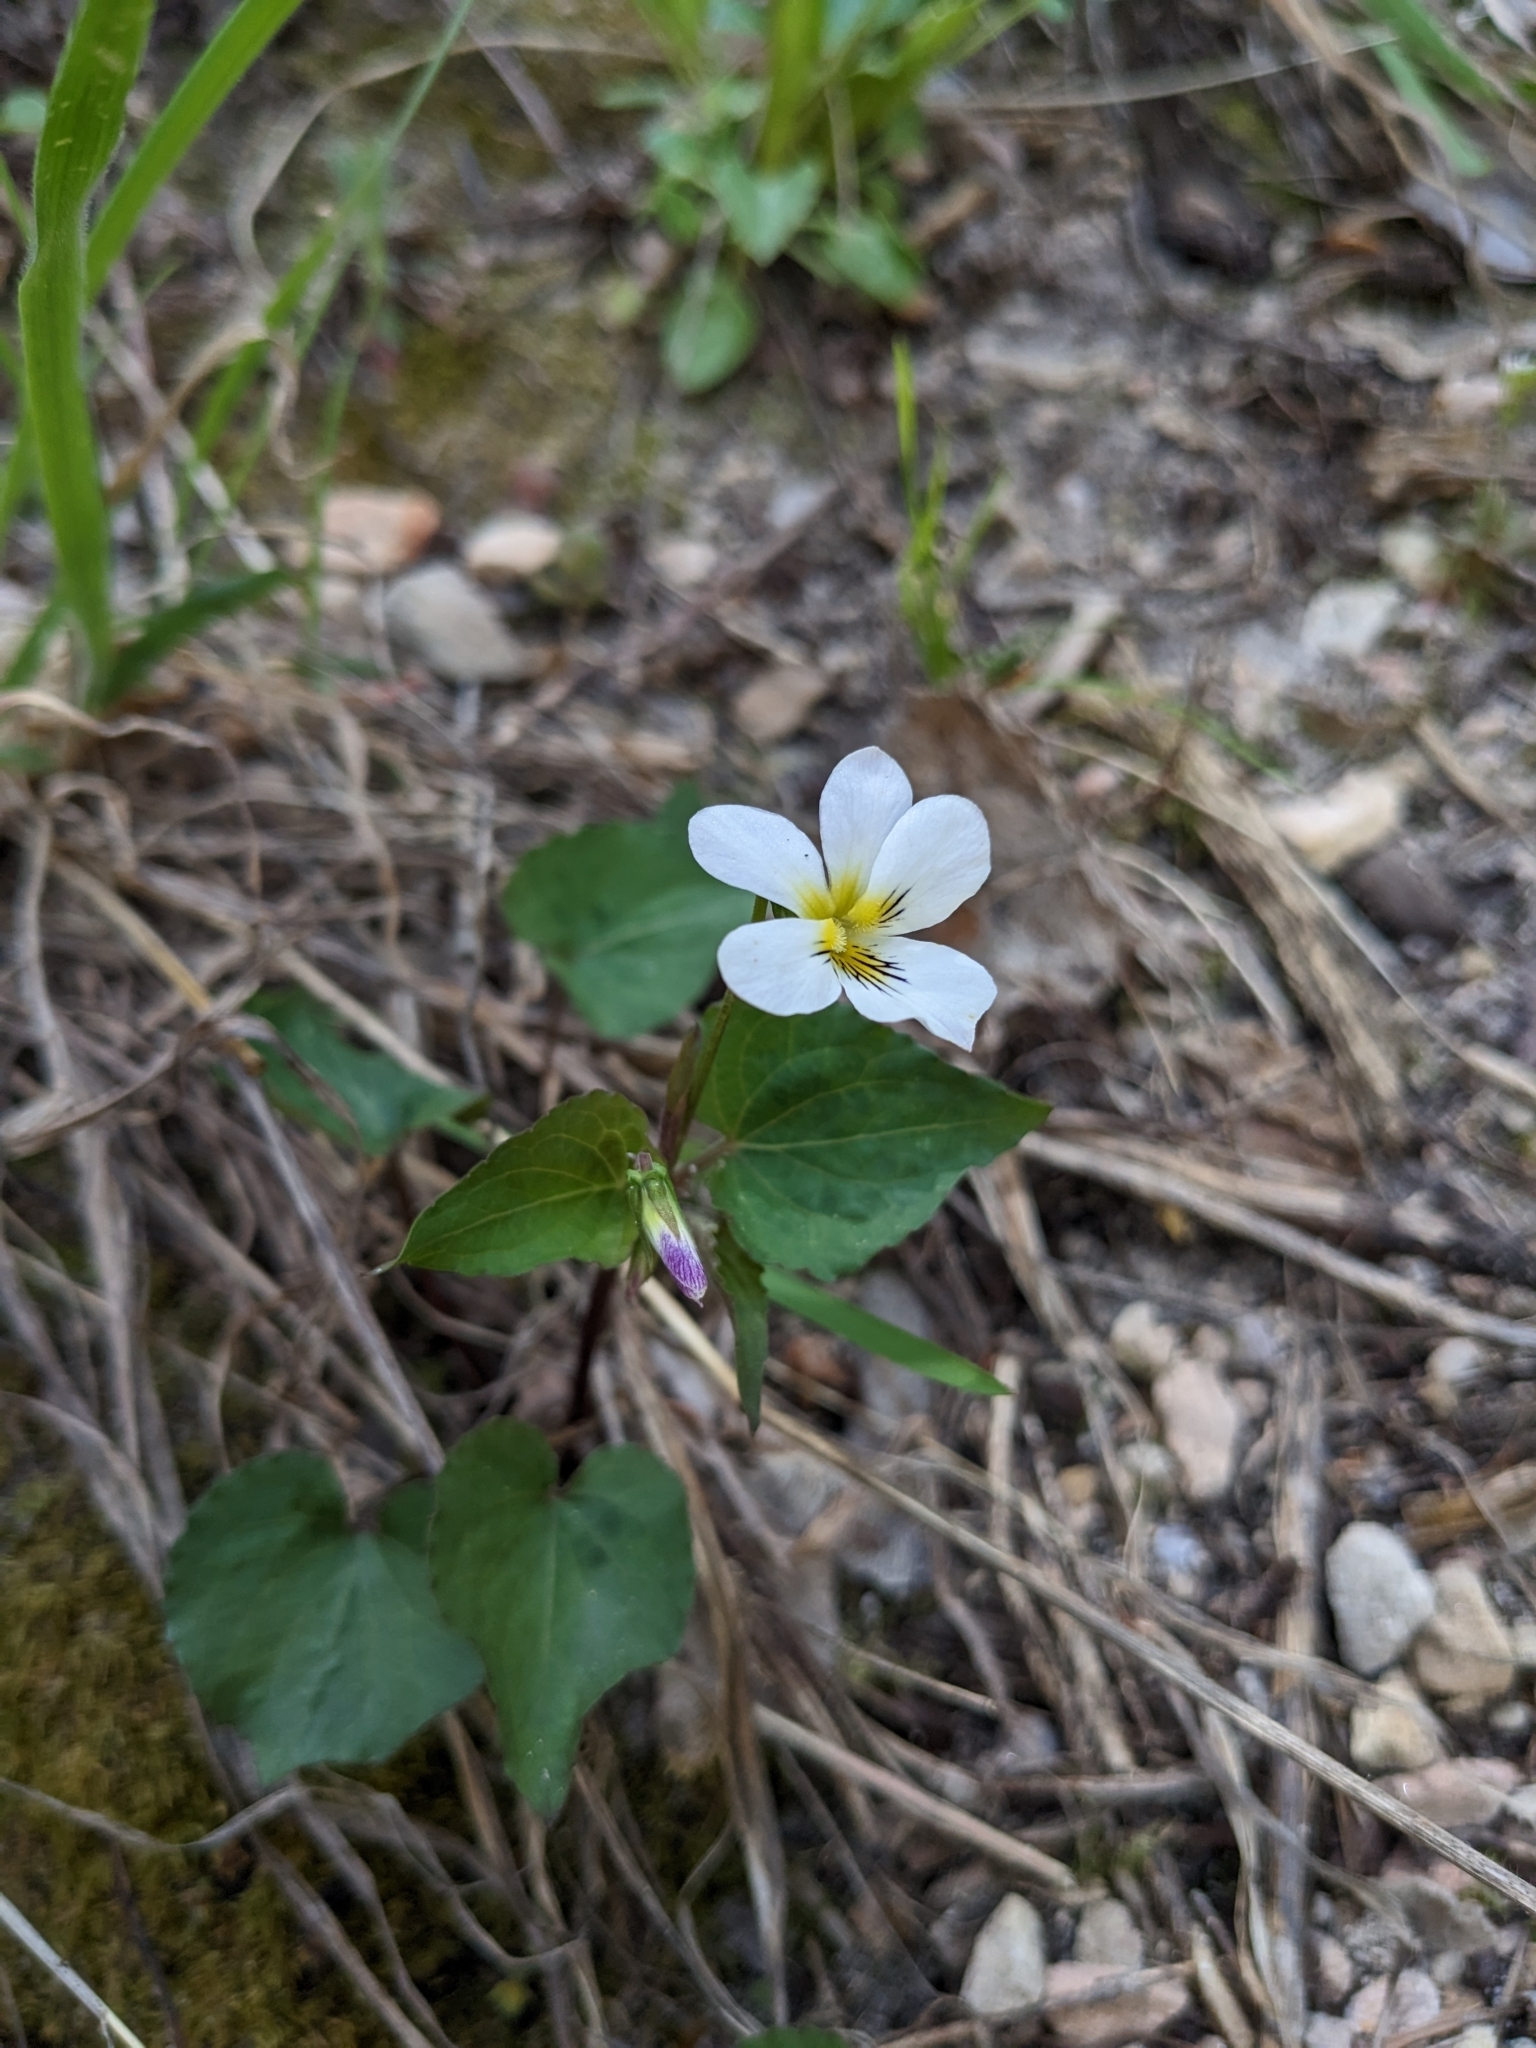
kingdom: Plantae
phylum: Tracheophyta
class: Magnoliopsida
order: Malpighiales
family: Violaceae
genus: Viola
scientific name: Viola canadensis
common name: Canada violet
